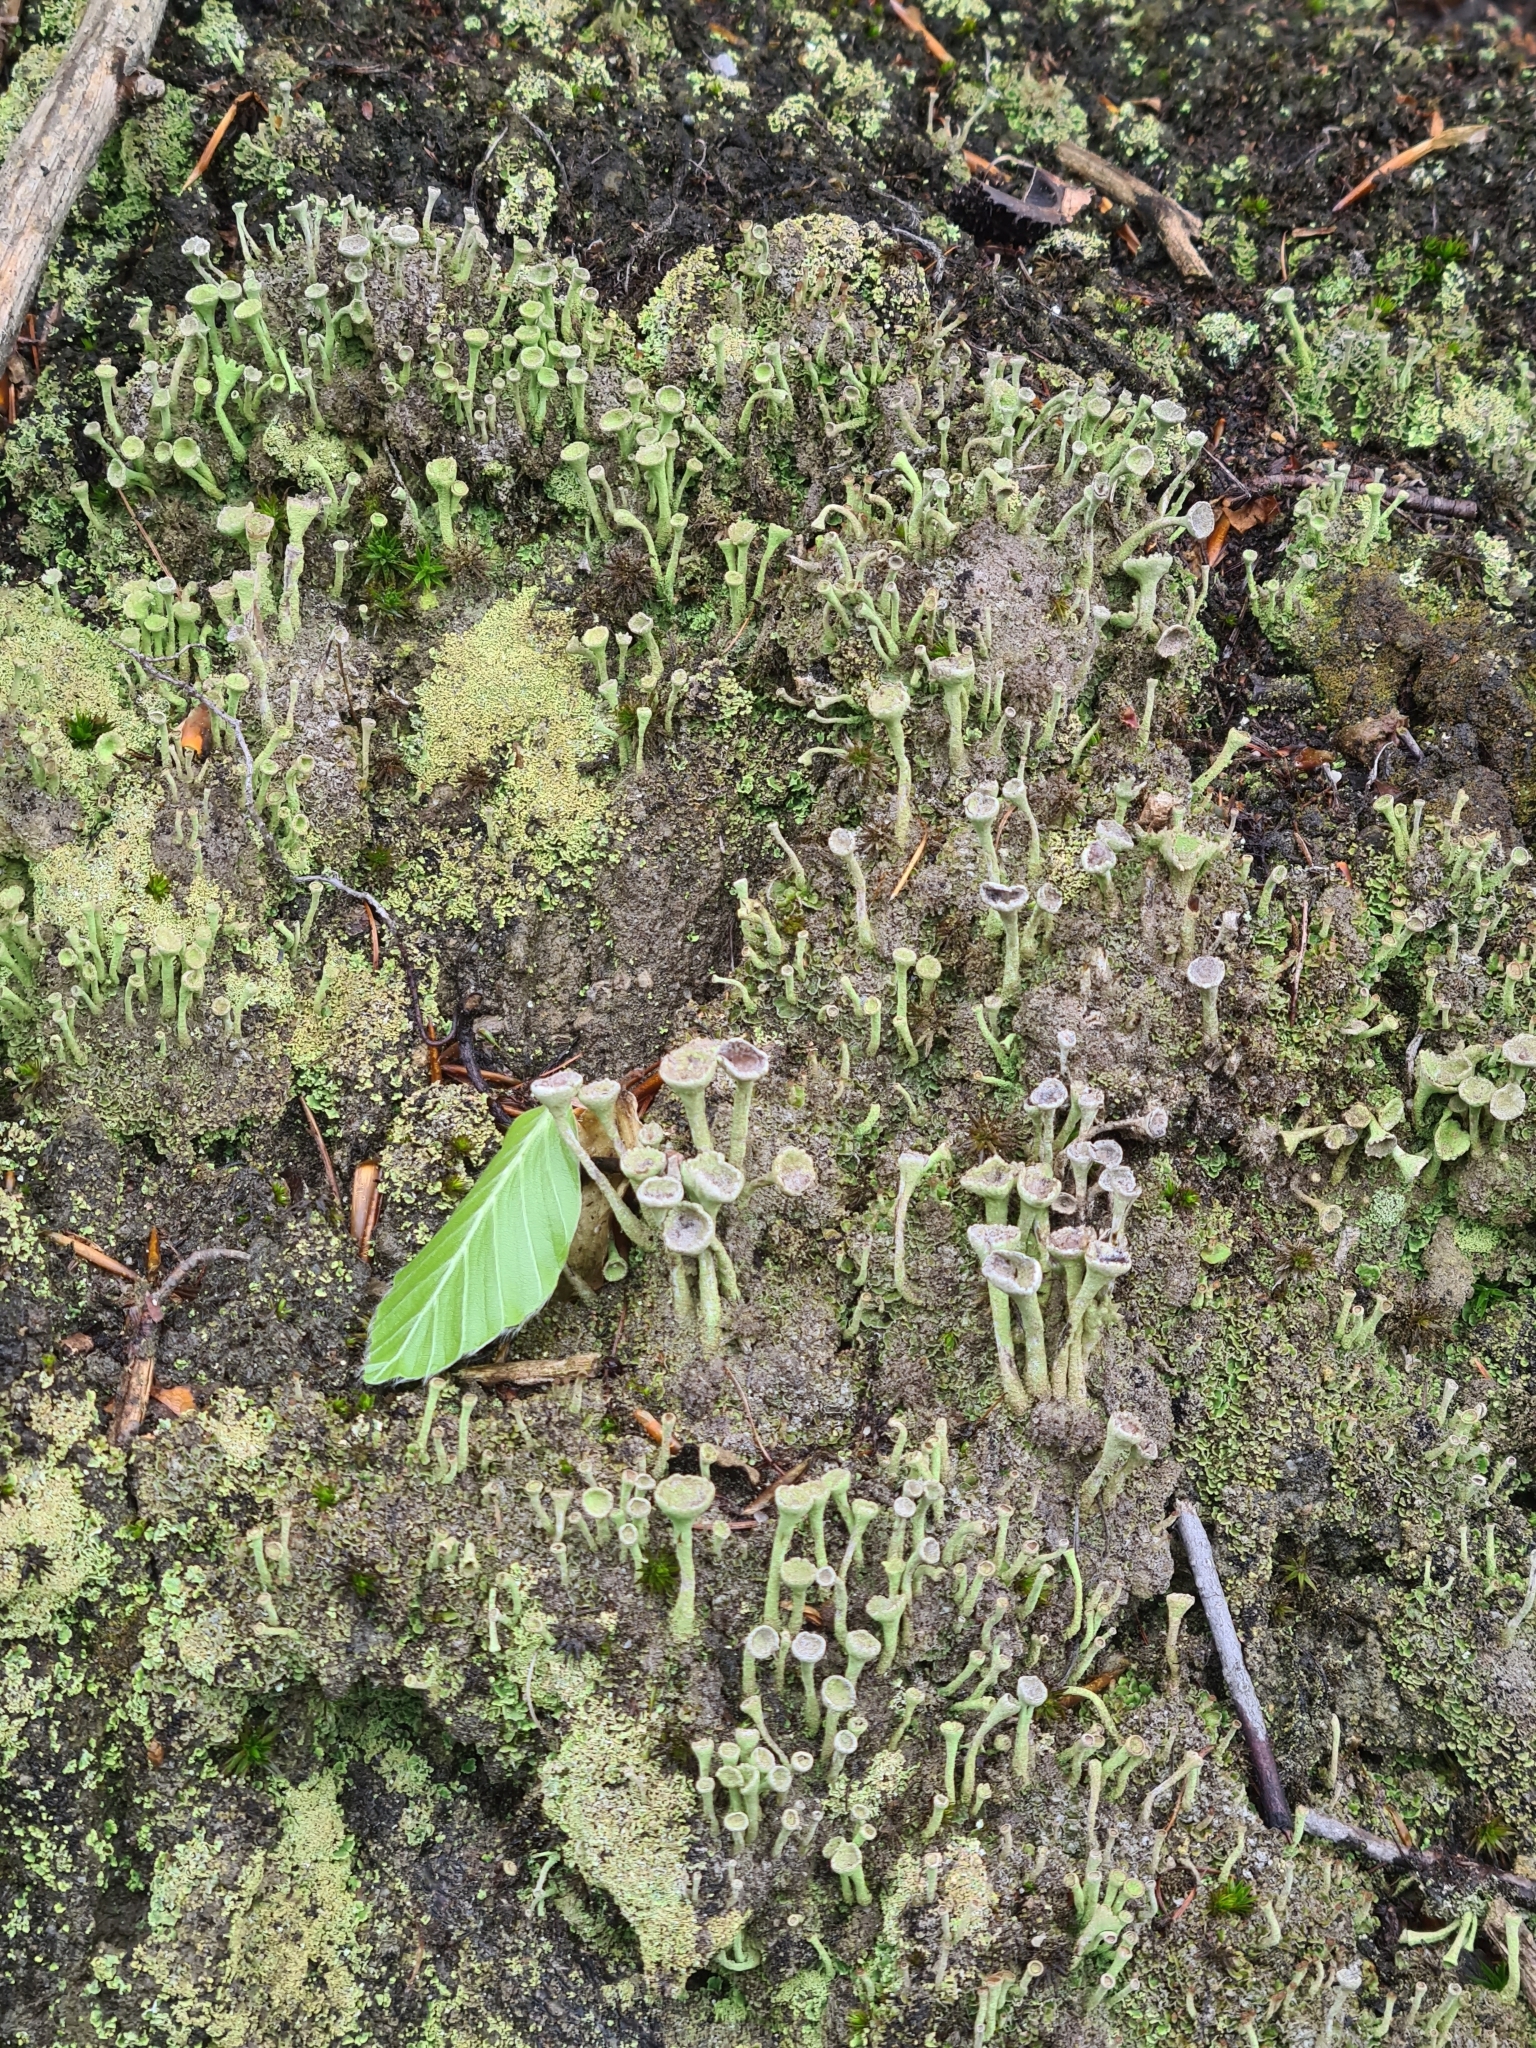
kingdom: Fungi
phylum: Ascomycota
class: Lecanoromycetes
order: Lecanorales
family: Cladoniaceae
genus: Cladonia
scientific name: Cladonia fimbriata
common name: Powdered trumpet lichen
